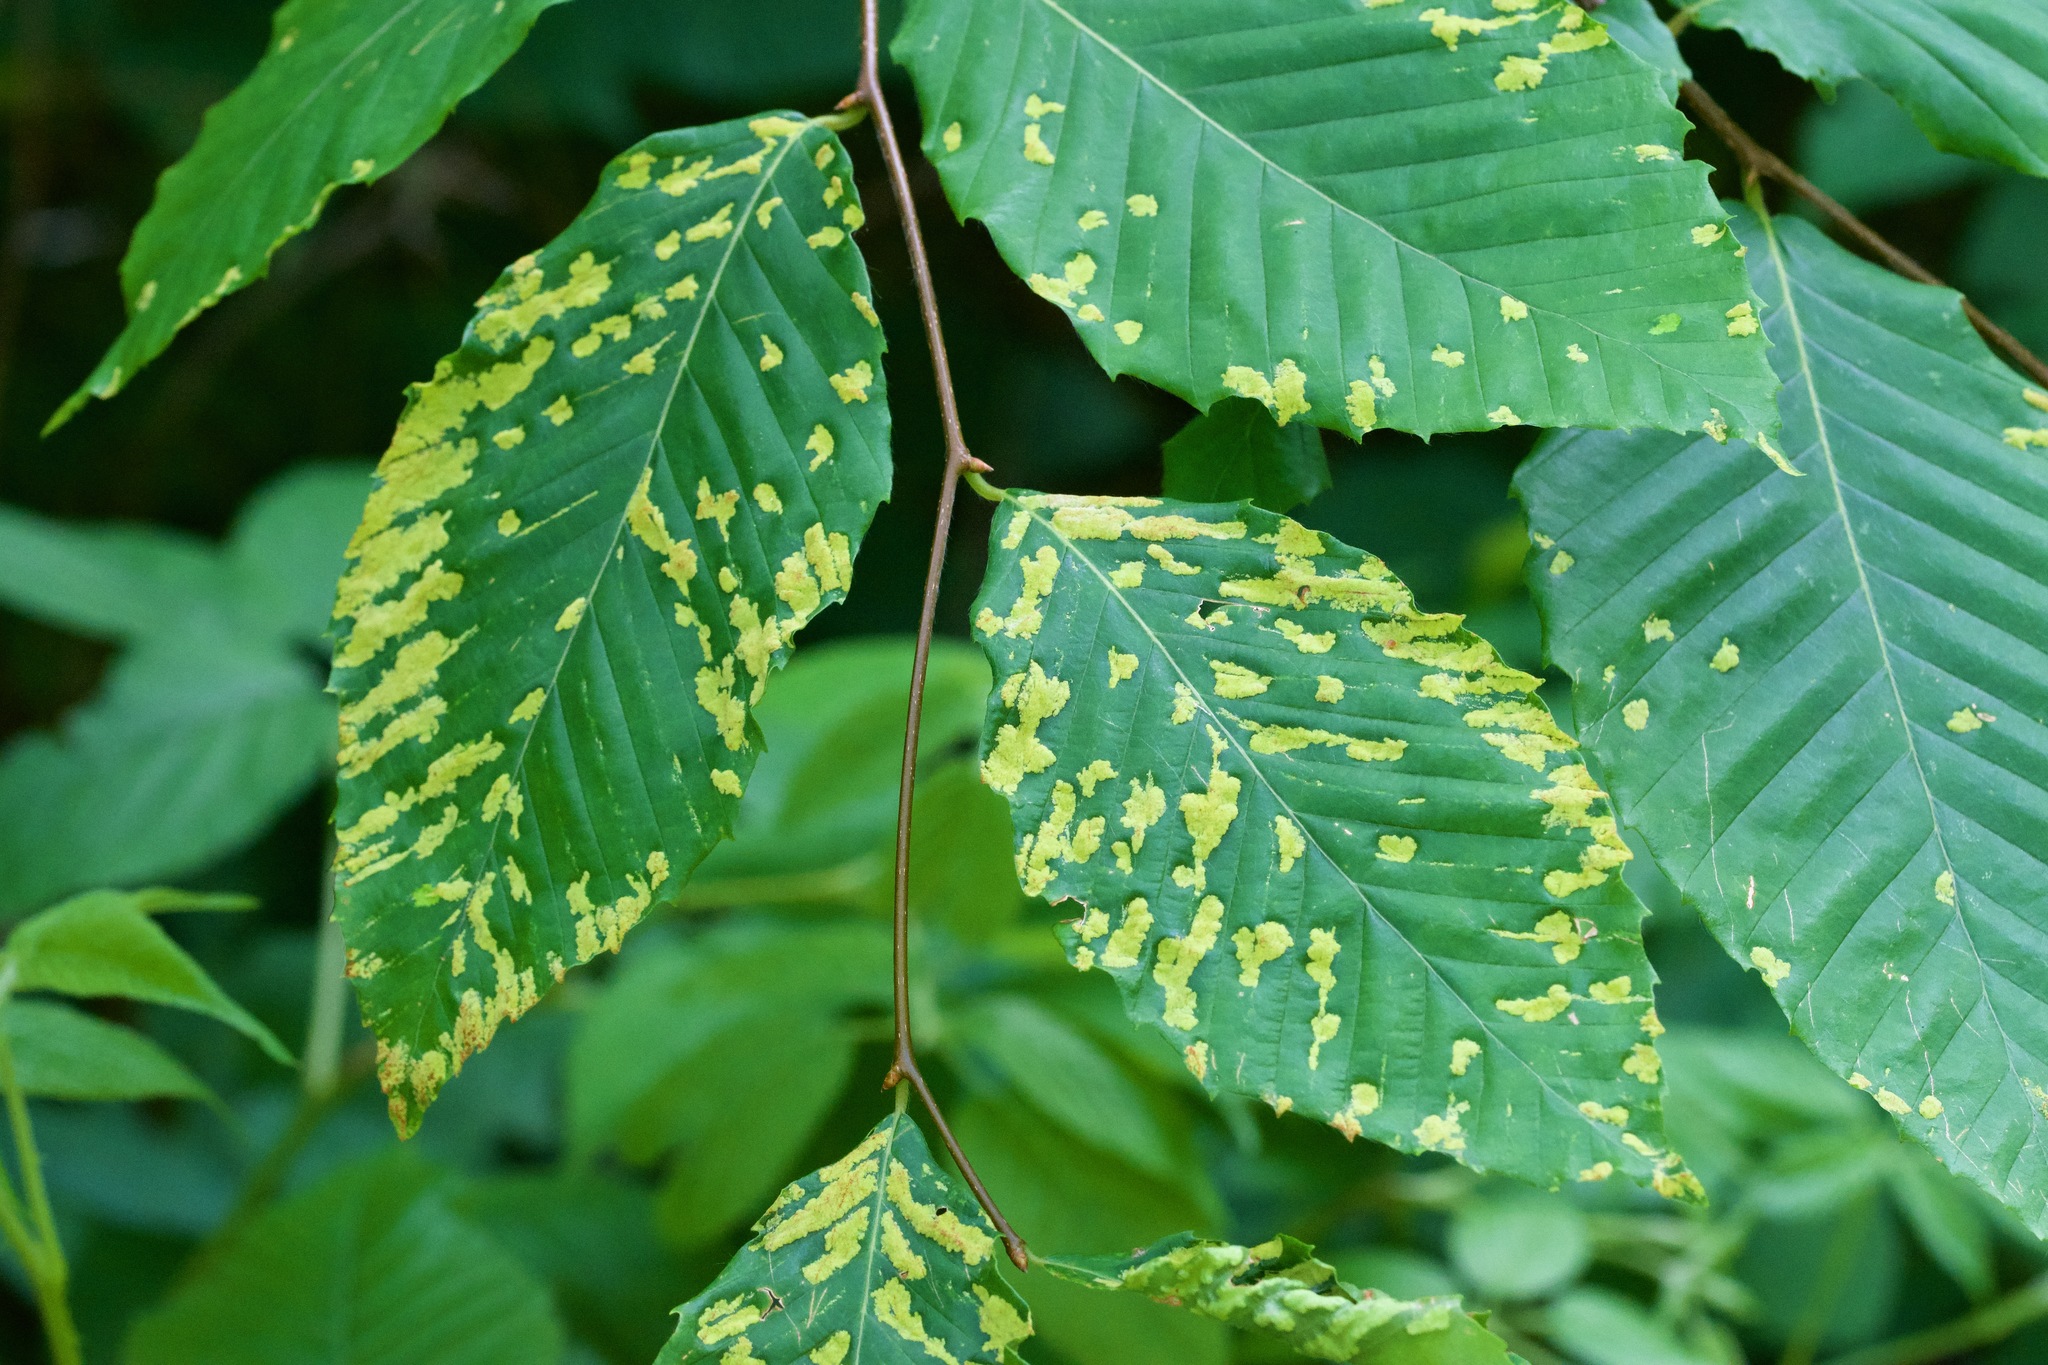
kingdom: Animalia
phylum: Arthropoda
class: Arachnida
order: Trombidiformes
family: Eriophyidae
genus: Acalitus
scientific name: Acalitus
